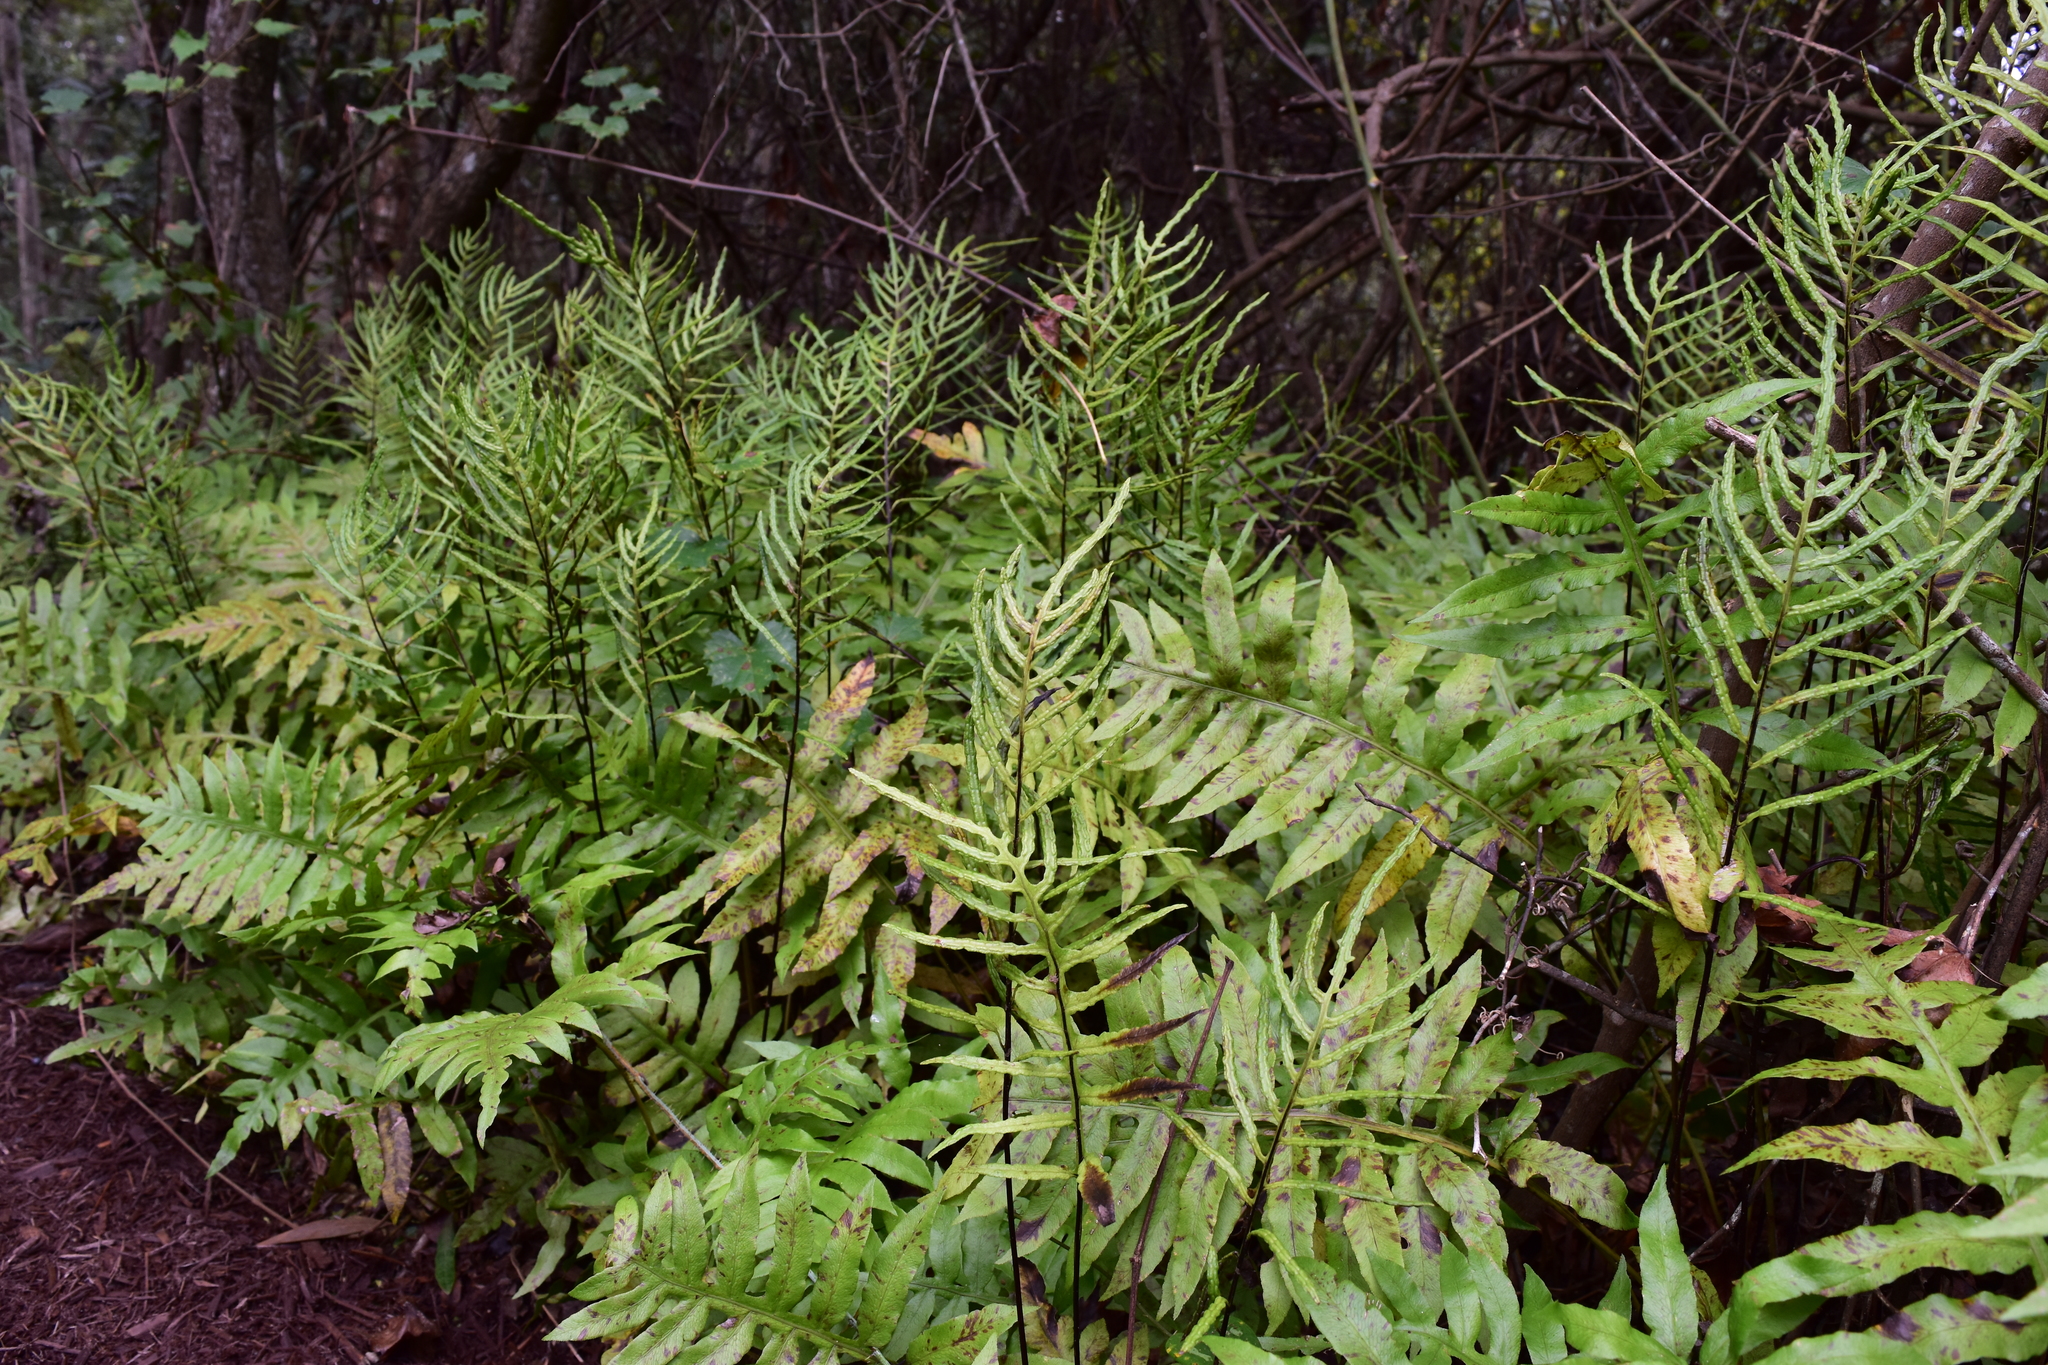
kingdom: Plantae
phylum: Tracheophyta
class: Polypodiopsida
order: Polypodiales
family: Blechnaceae
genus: Lorinseria
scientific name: Lorinseria areolata
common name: Dwarf chain fern
